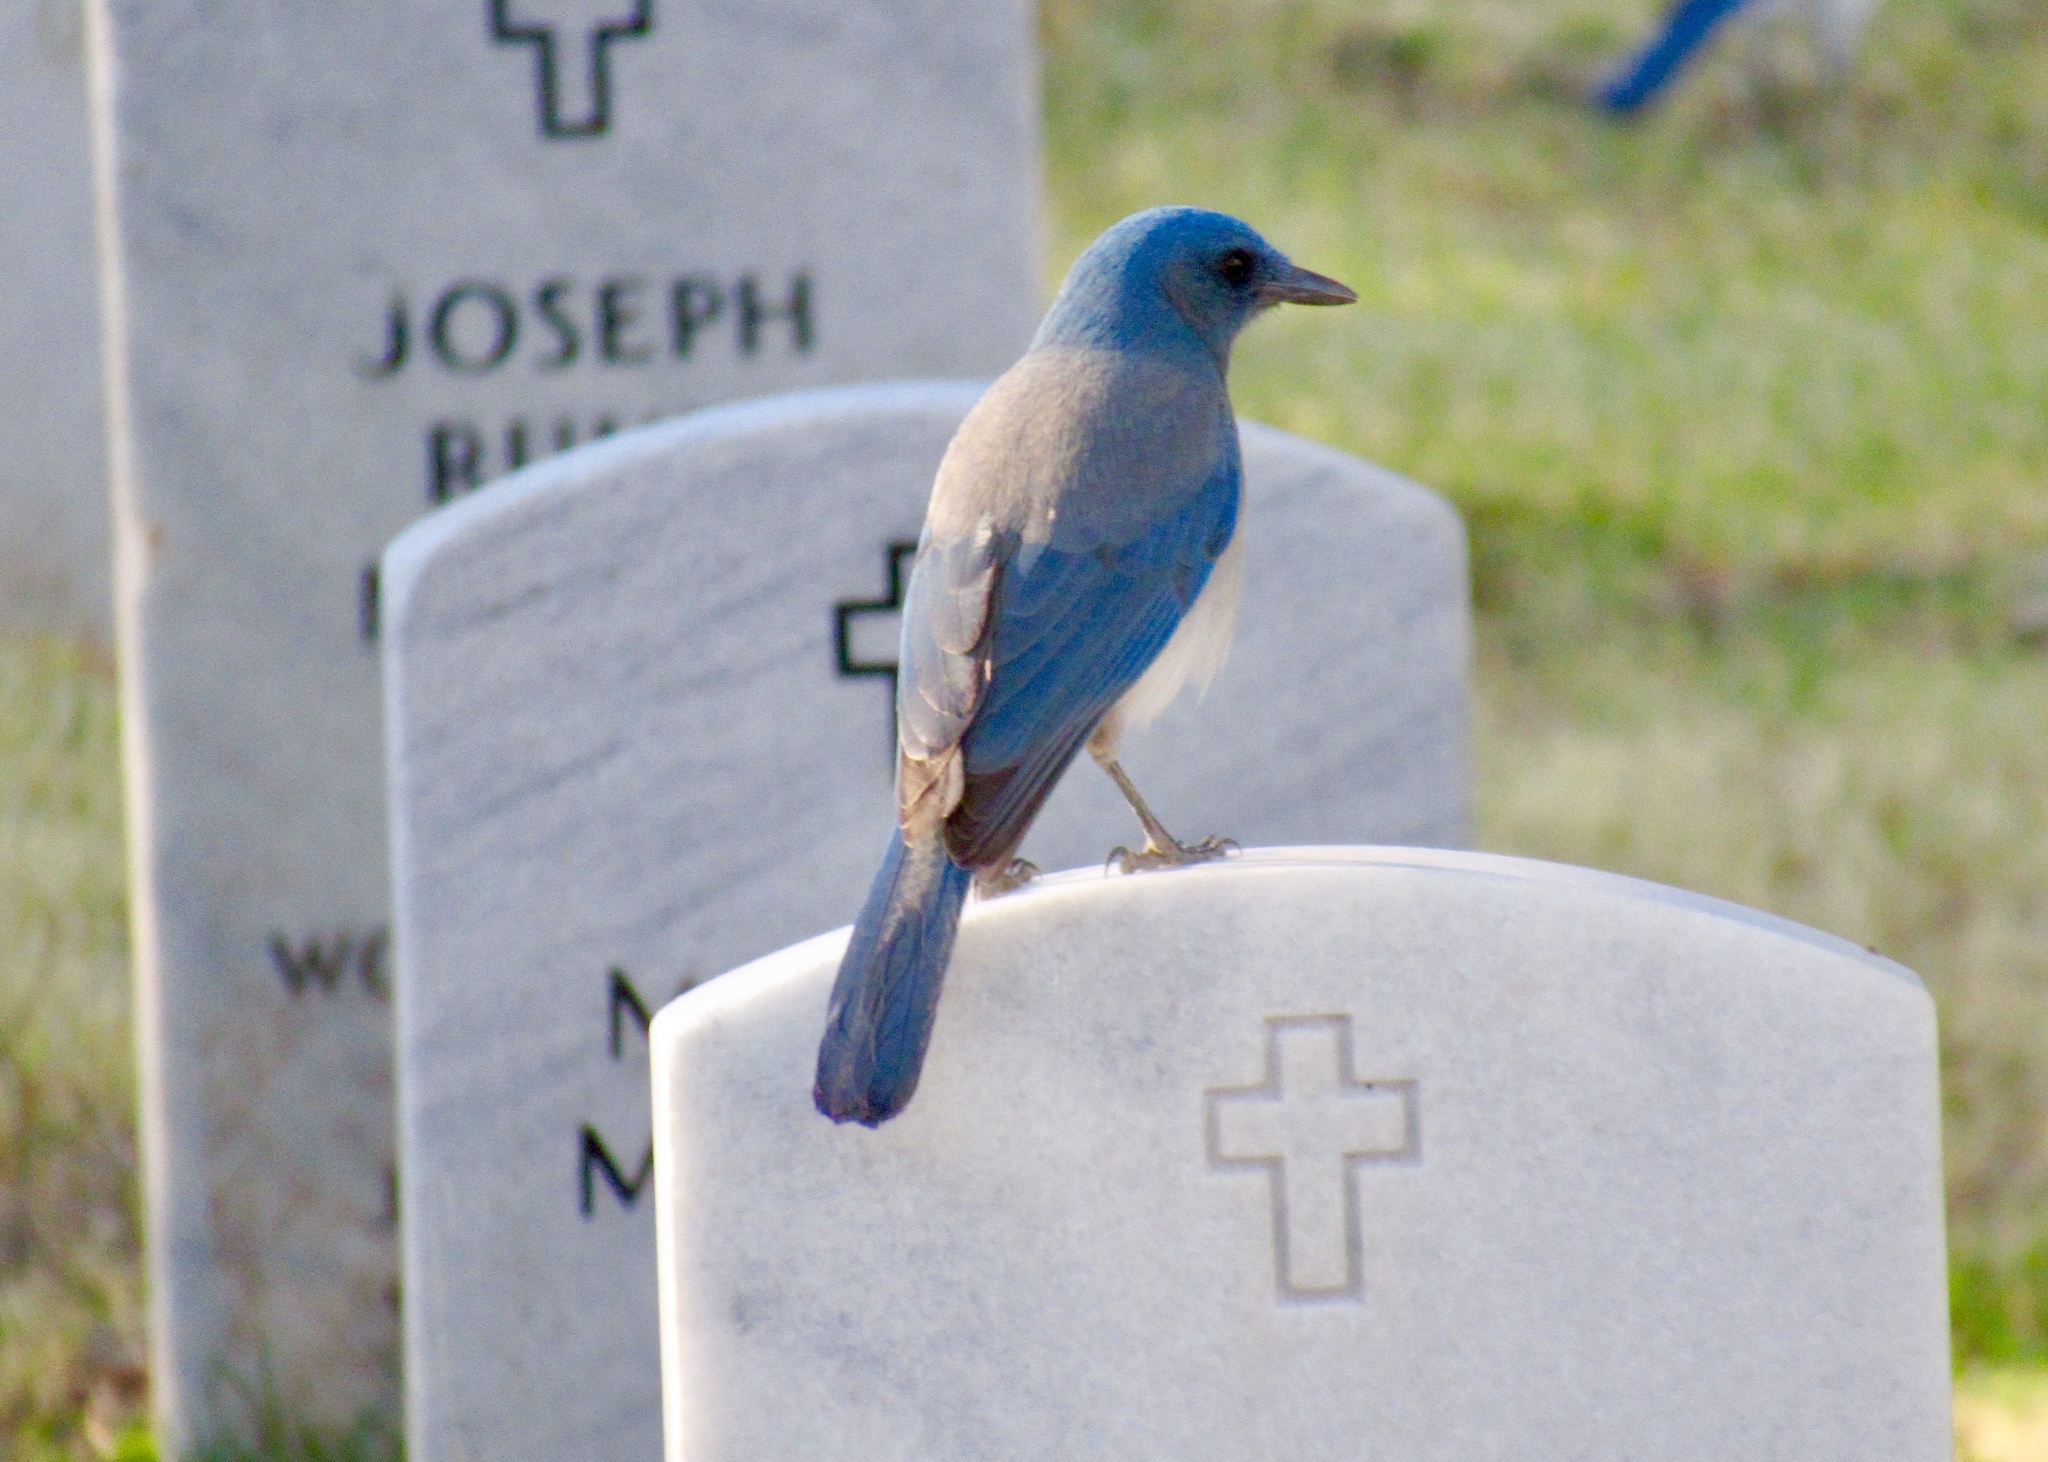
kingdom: Animalia
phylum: Chordata
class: Aves
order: Passeriformes
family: Corvidae
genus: Aphelocoma
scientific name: Aphelocoma wollweberi
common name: Mexican jay
